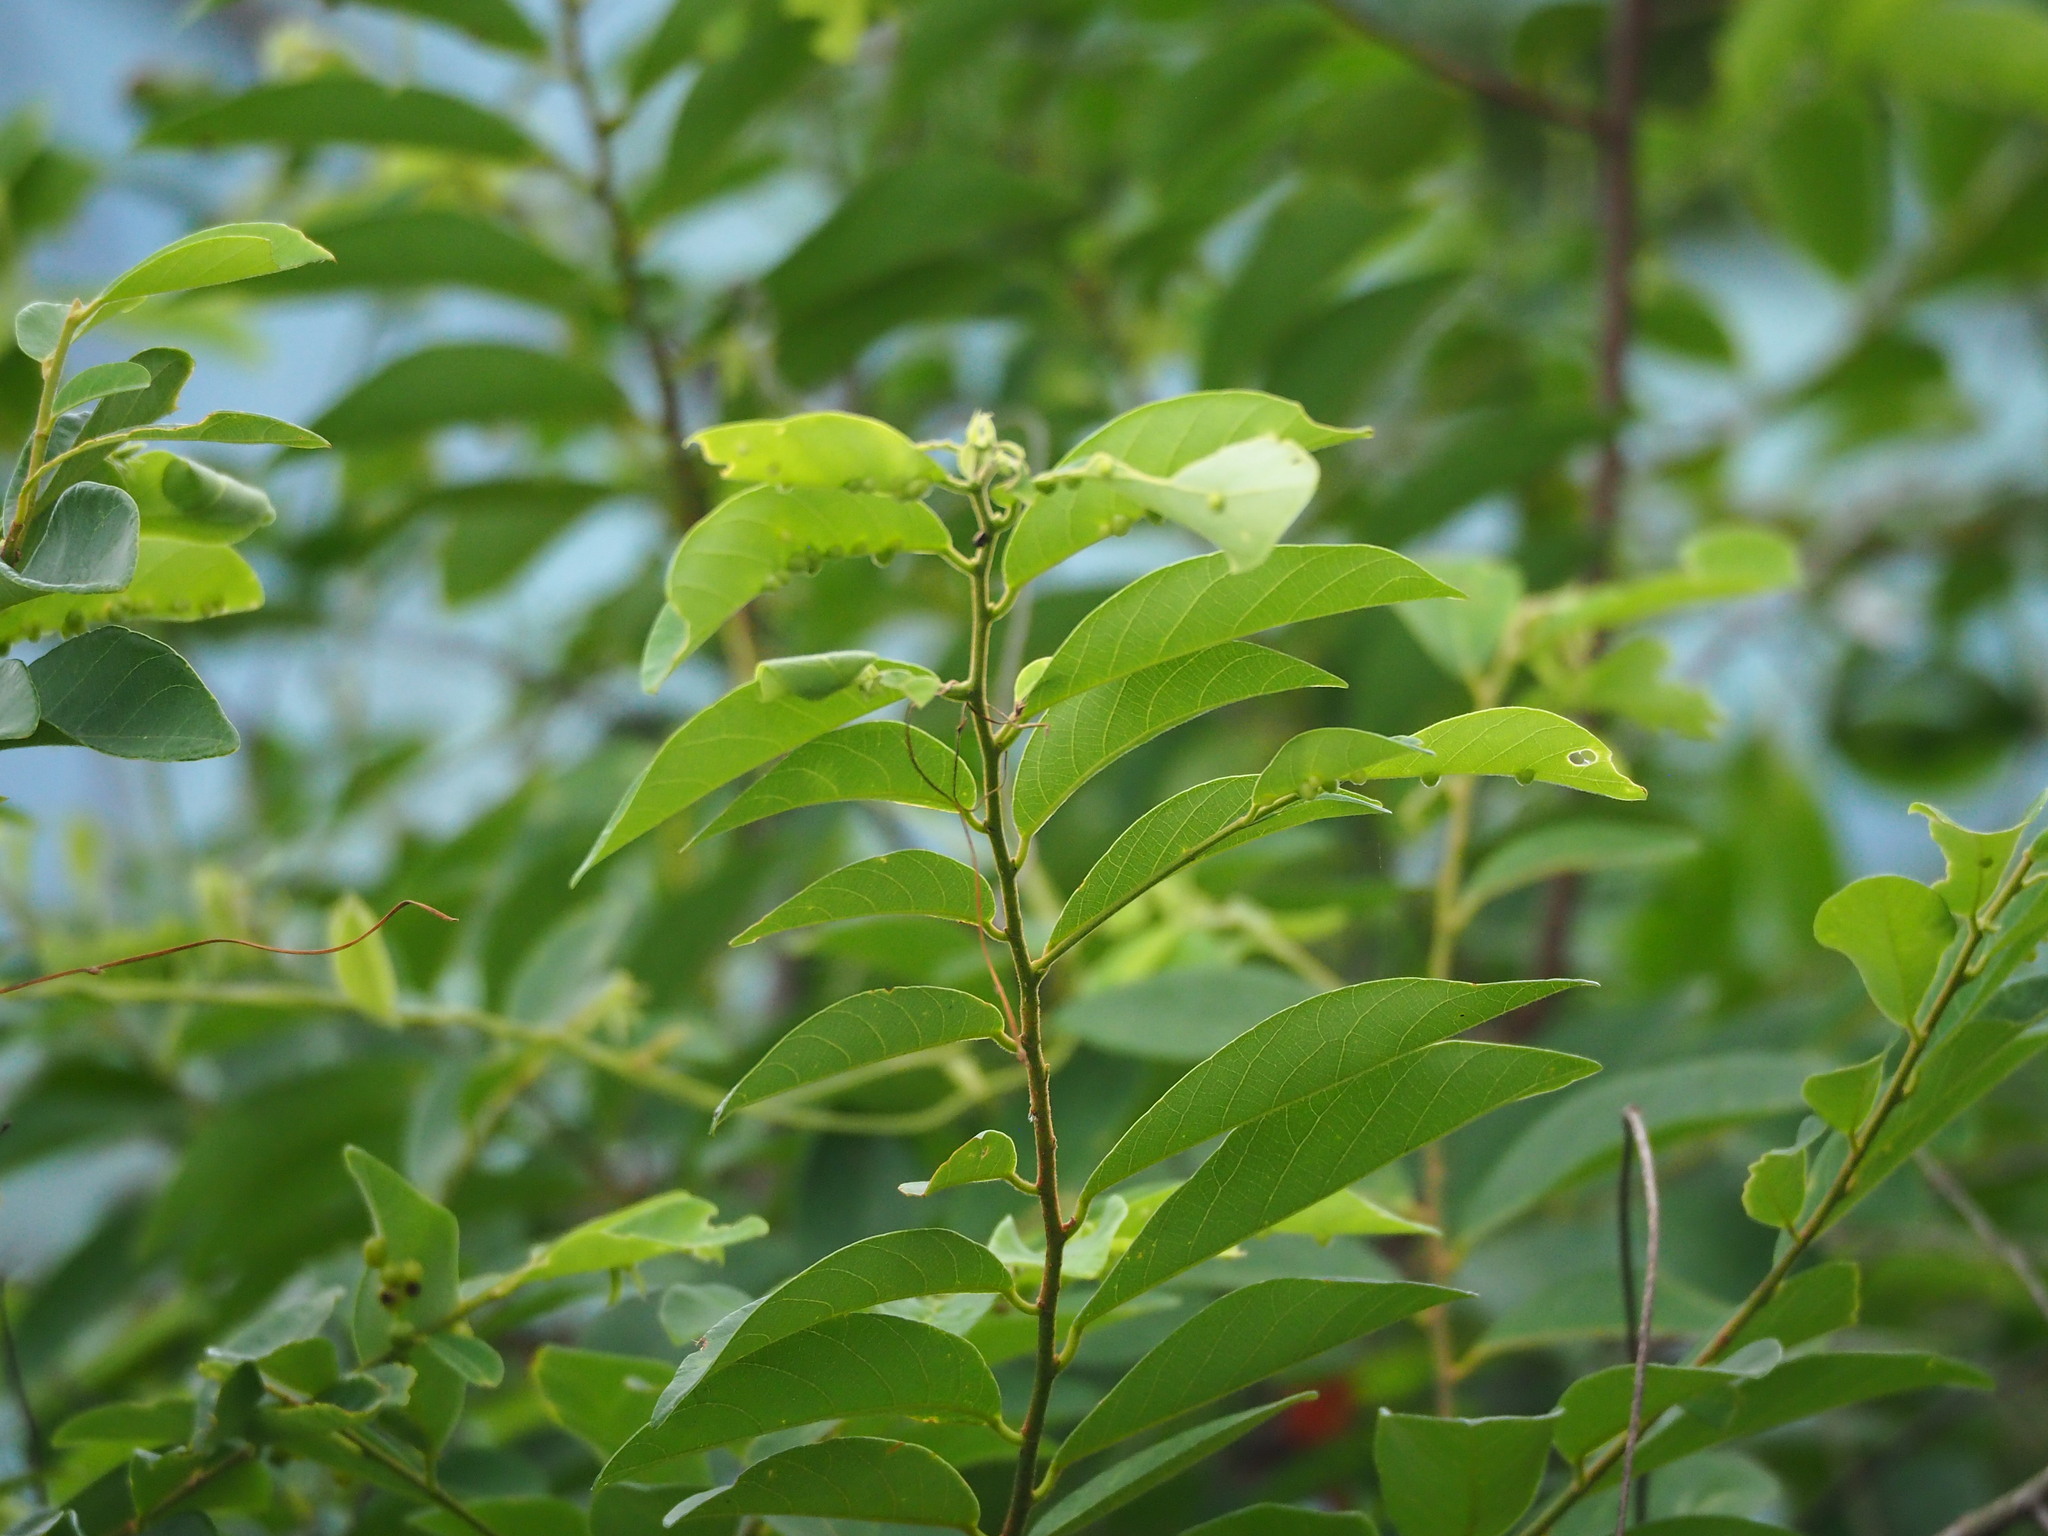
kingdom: Plantae
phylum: Tracheophyta
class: Magnoliopsida
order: Malpighiales
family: Phyllanthaceae
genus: Bridelia
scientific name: Bridelia tomentosa
